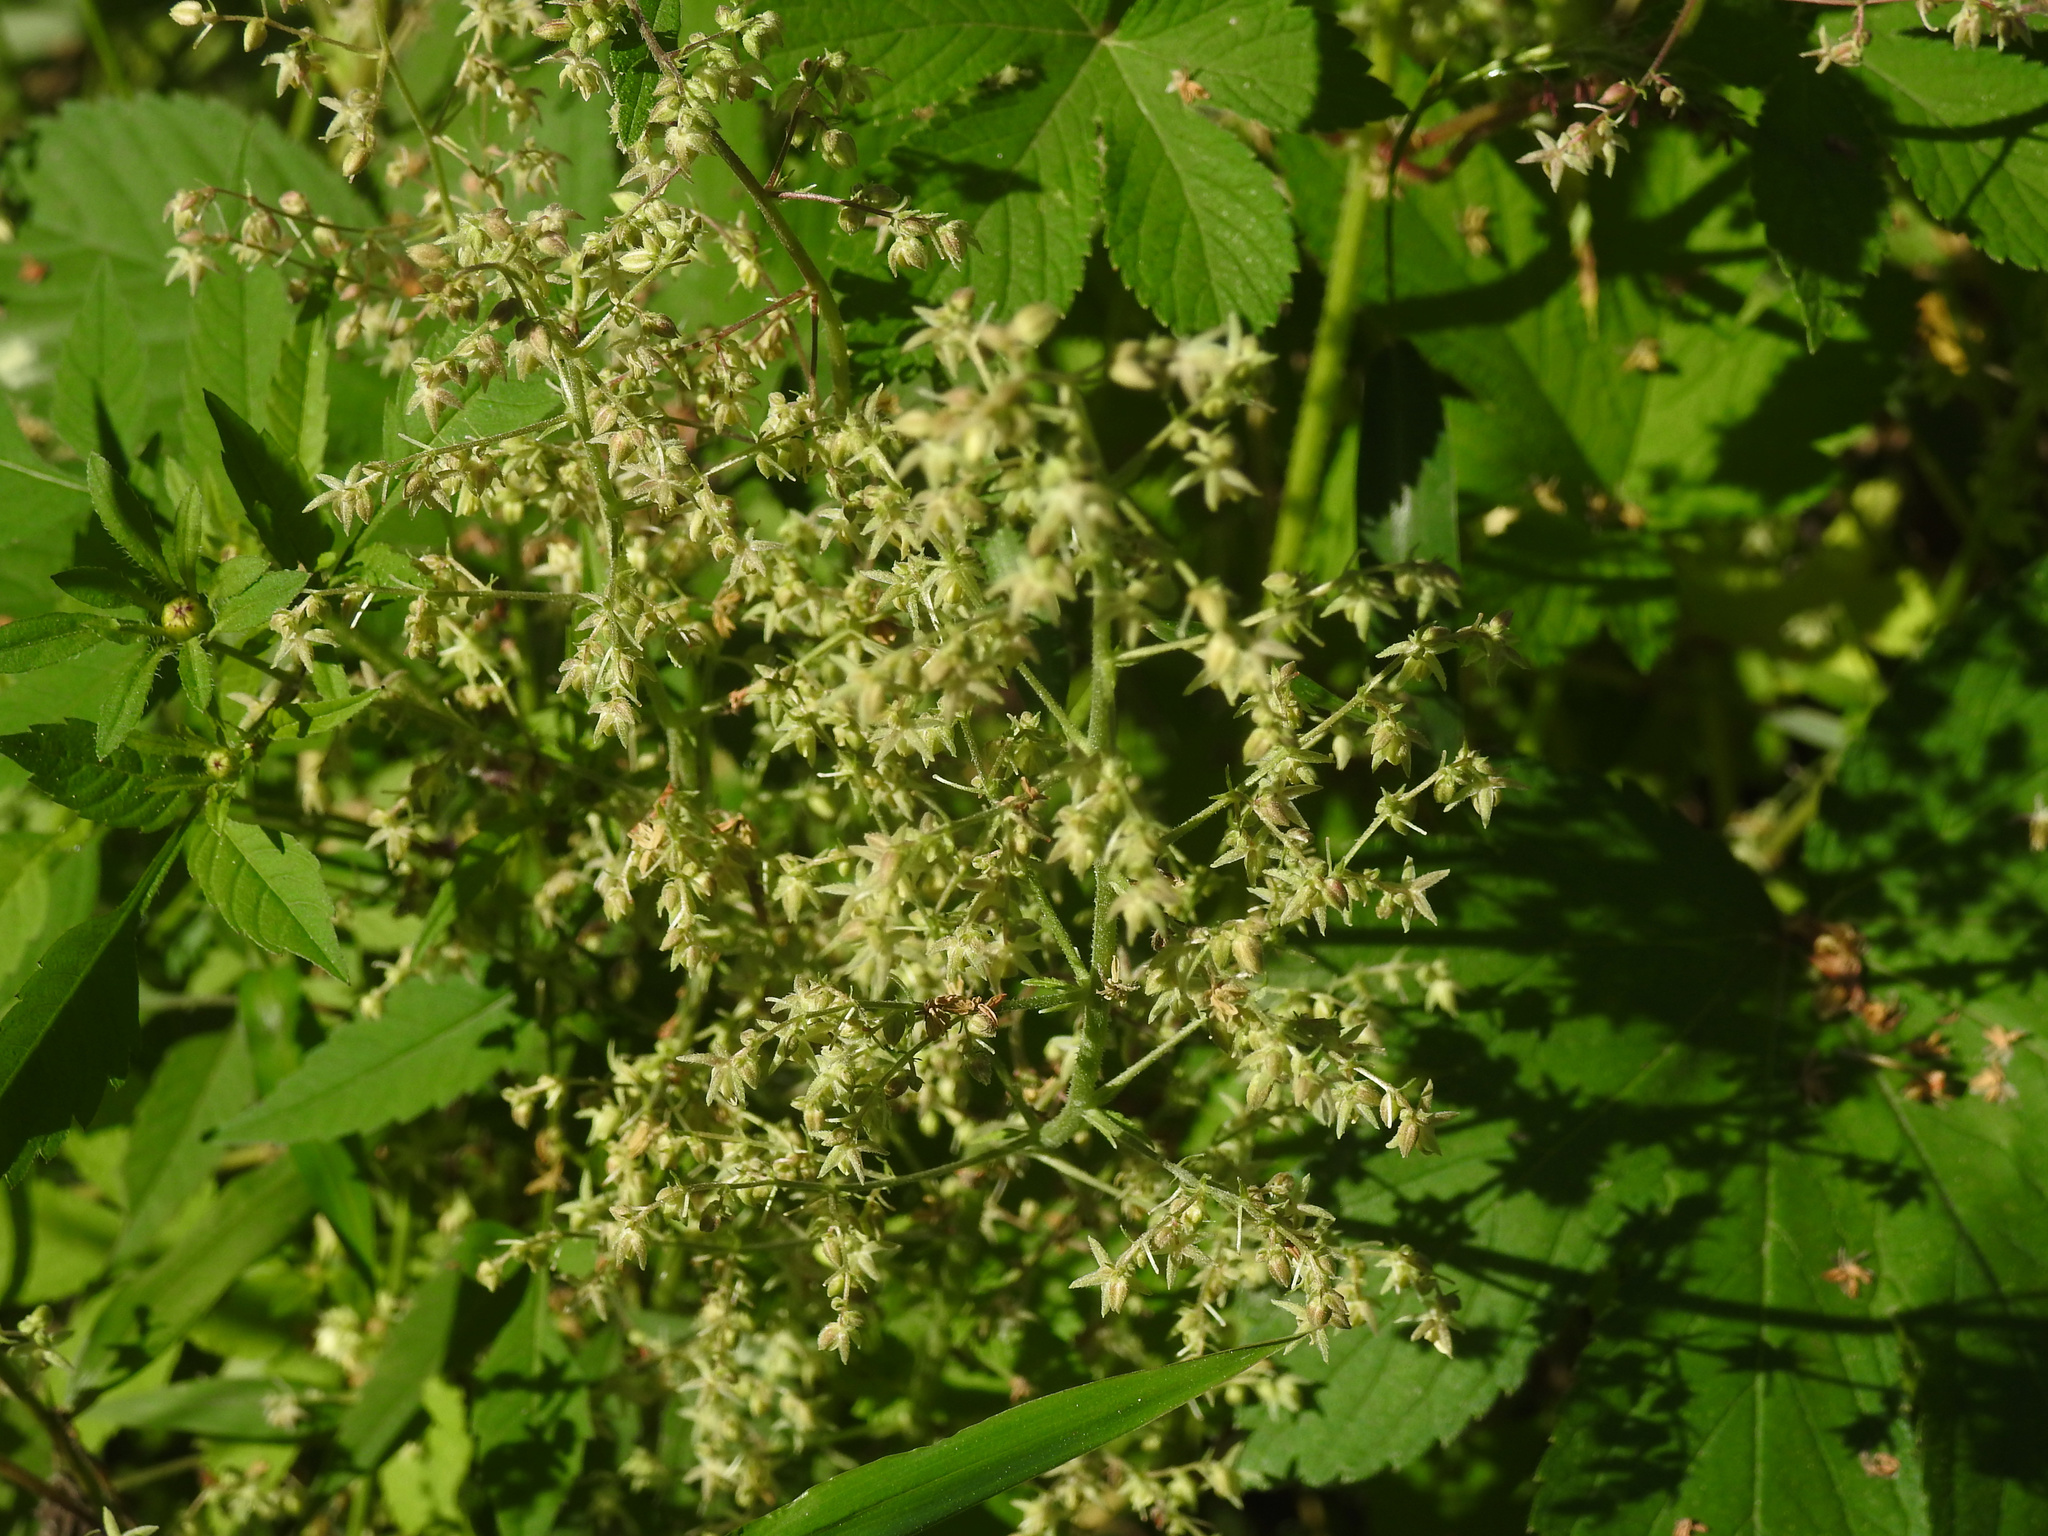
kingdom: Plantae
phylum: Tracheophyta
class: Magnoliopsida
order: Rosales
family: Cannabaceae
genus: Humulus
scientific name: Humulus scandens
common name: Japanese hop
